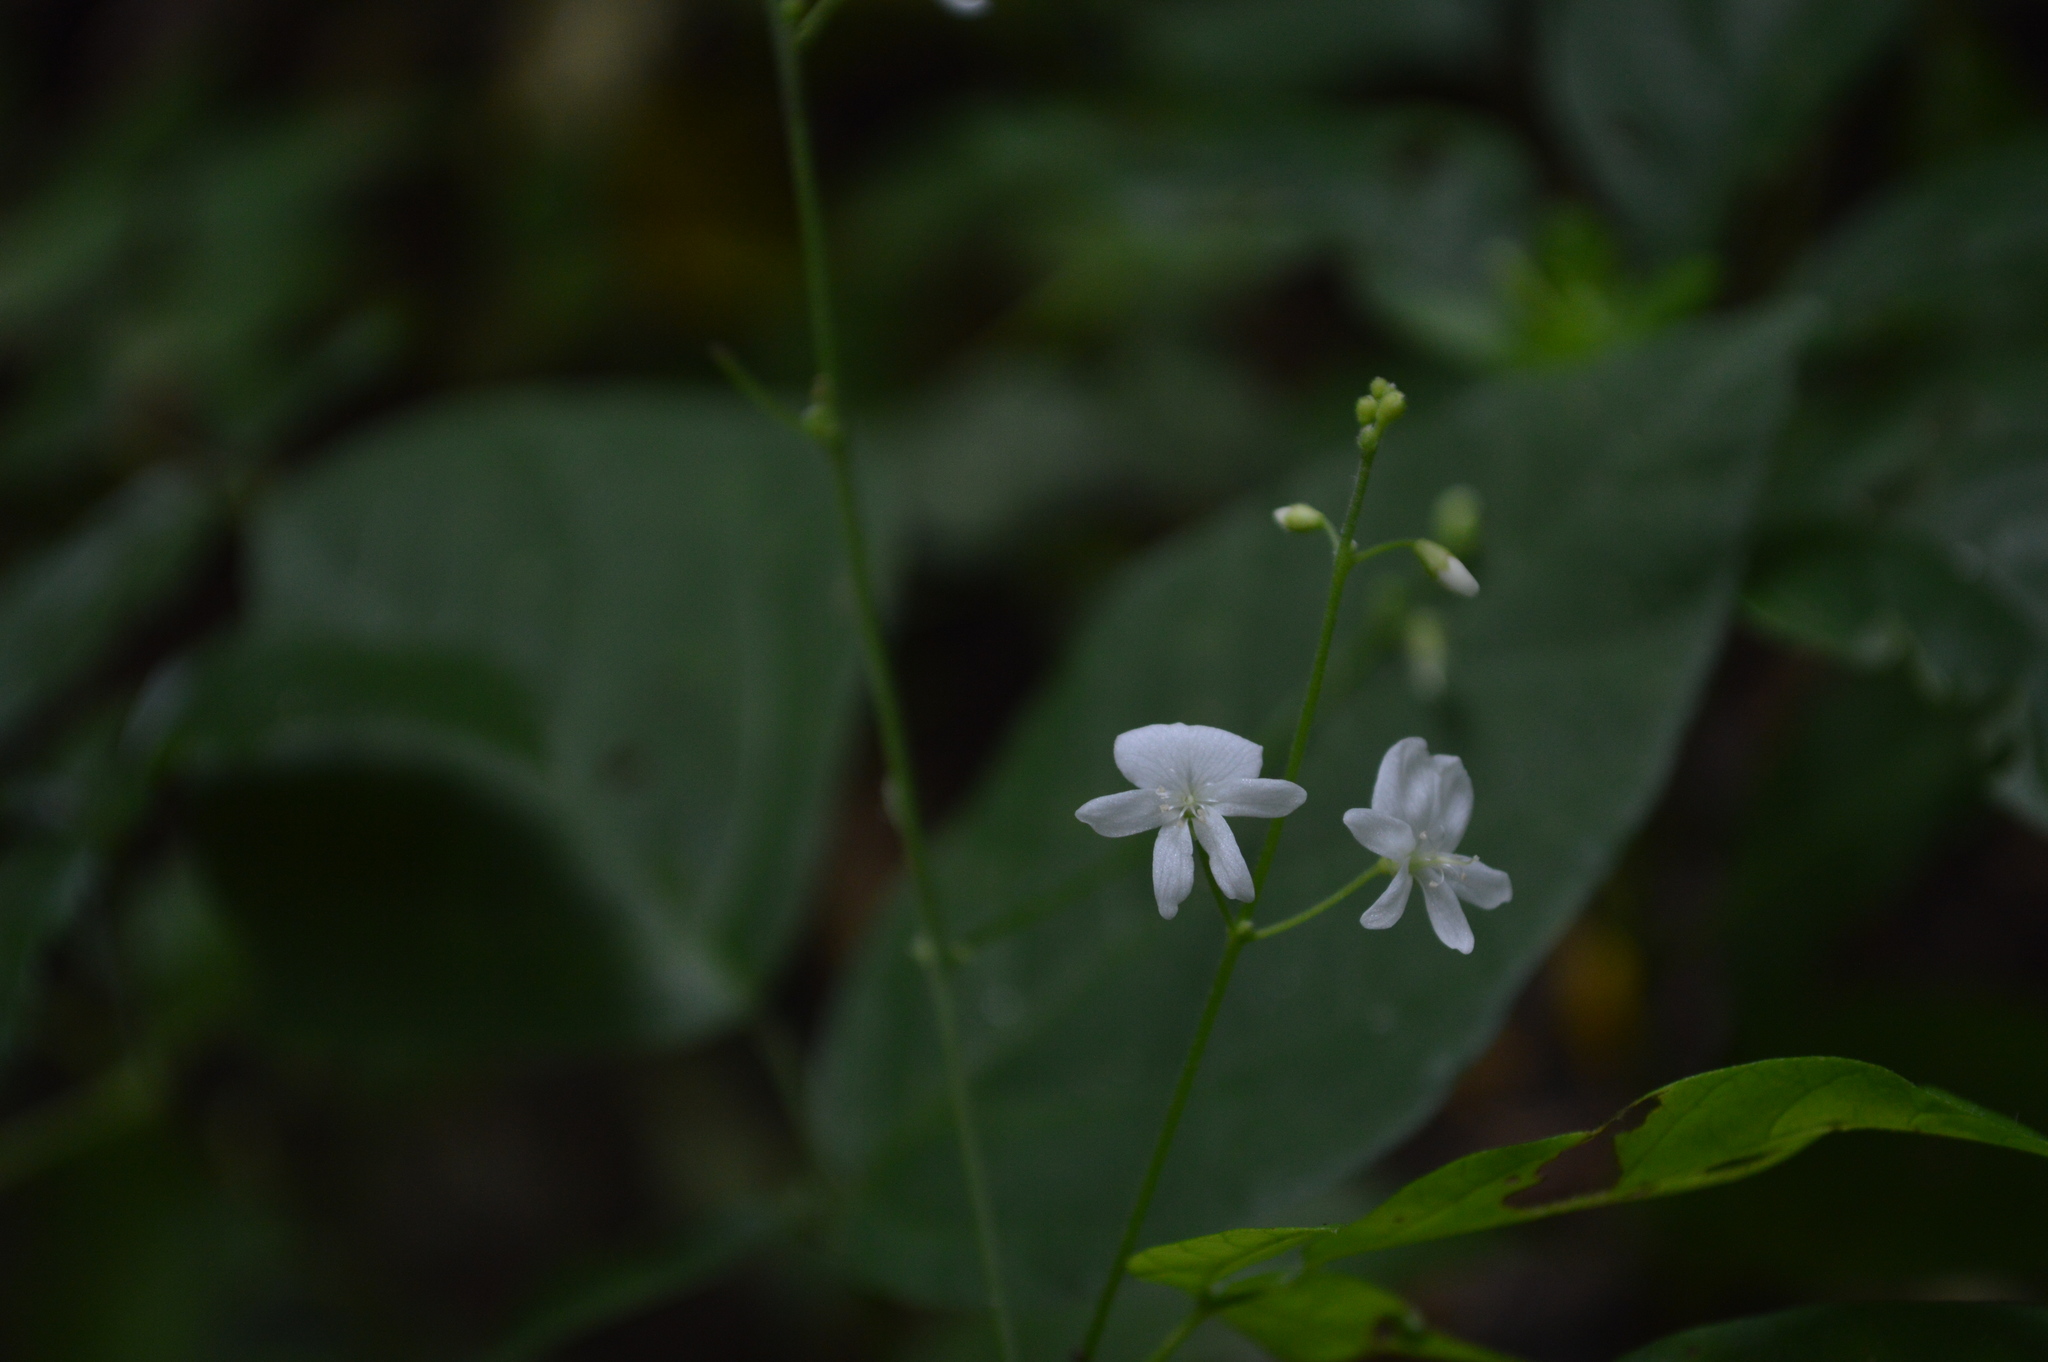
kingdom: Plantae
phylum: Tracheophyta
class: Magnoliopsida
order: Fabales
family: Fabaceae
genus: Hylodesmum
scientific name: Hylodesmum pauciflorum
